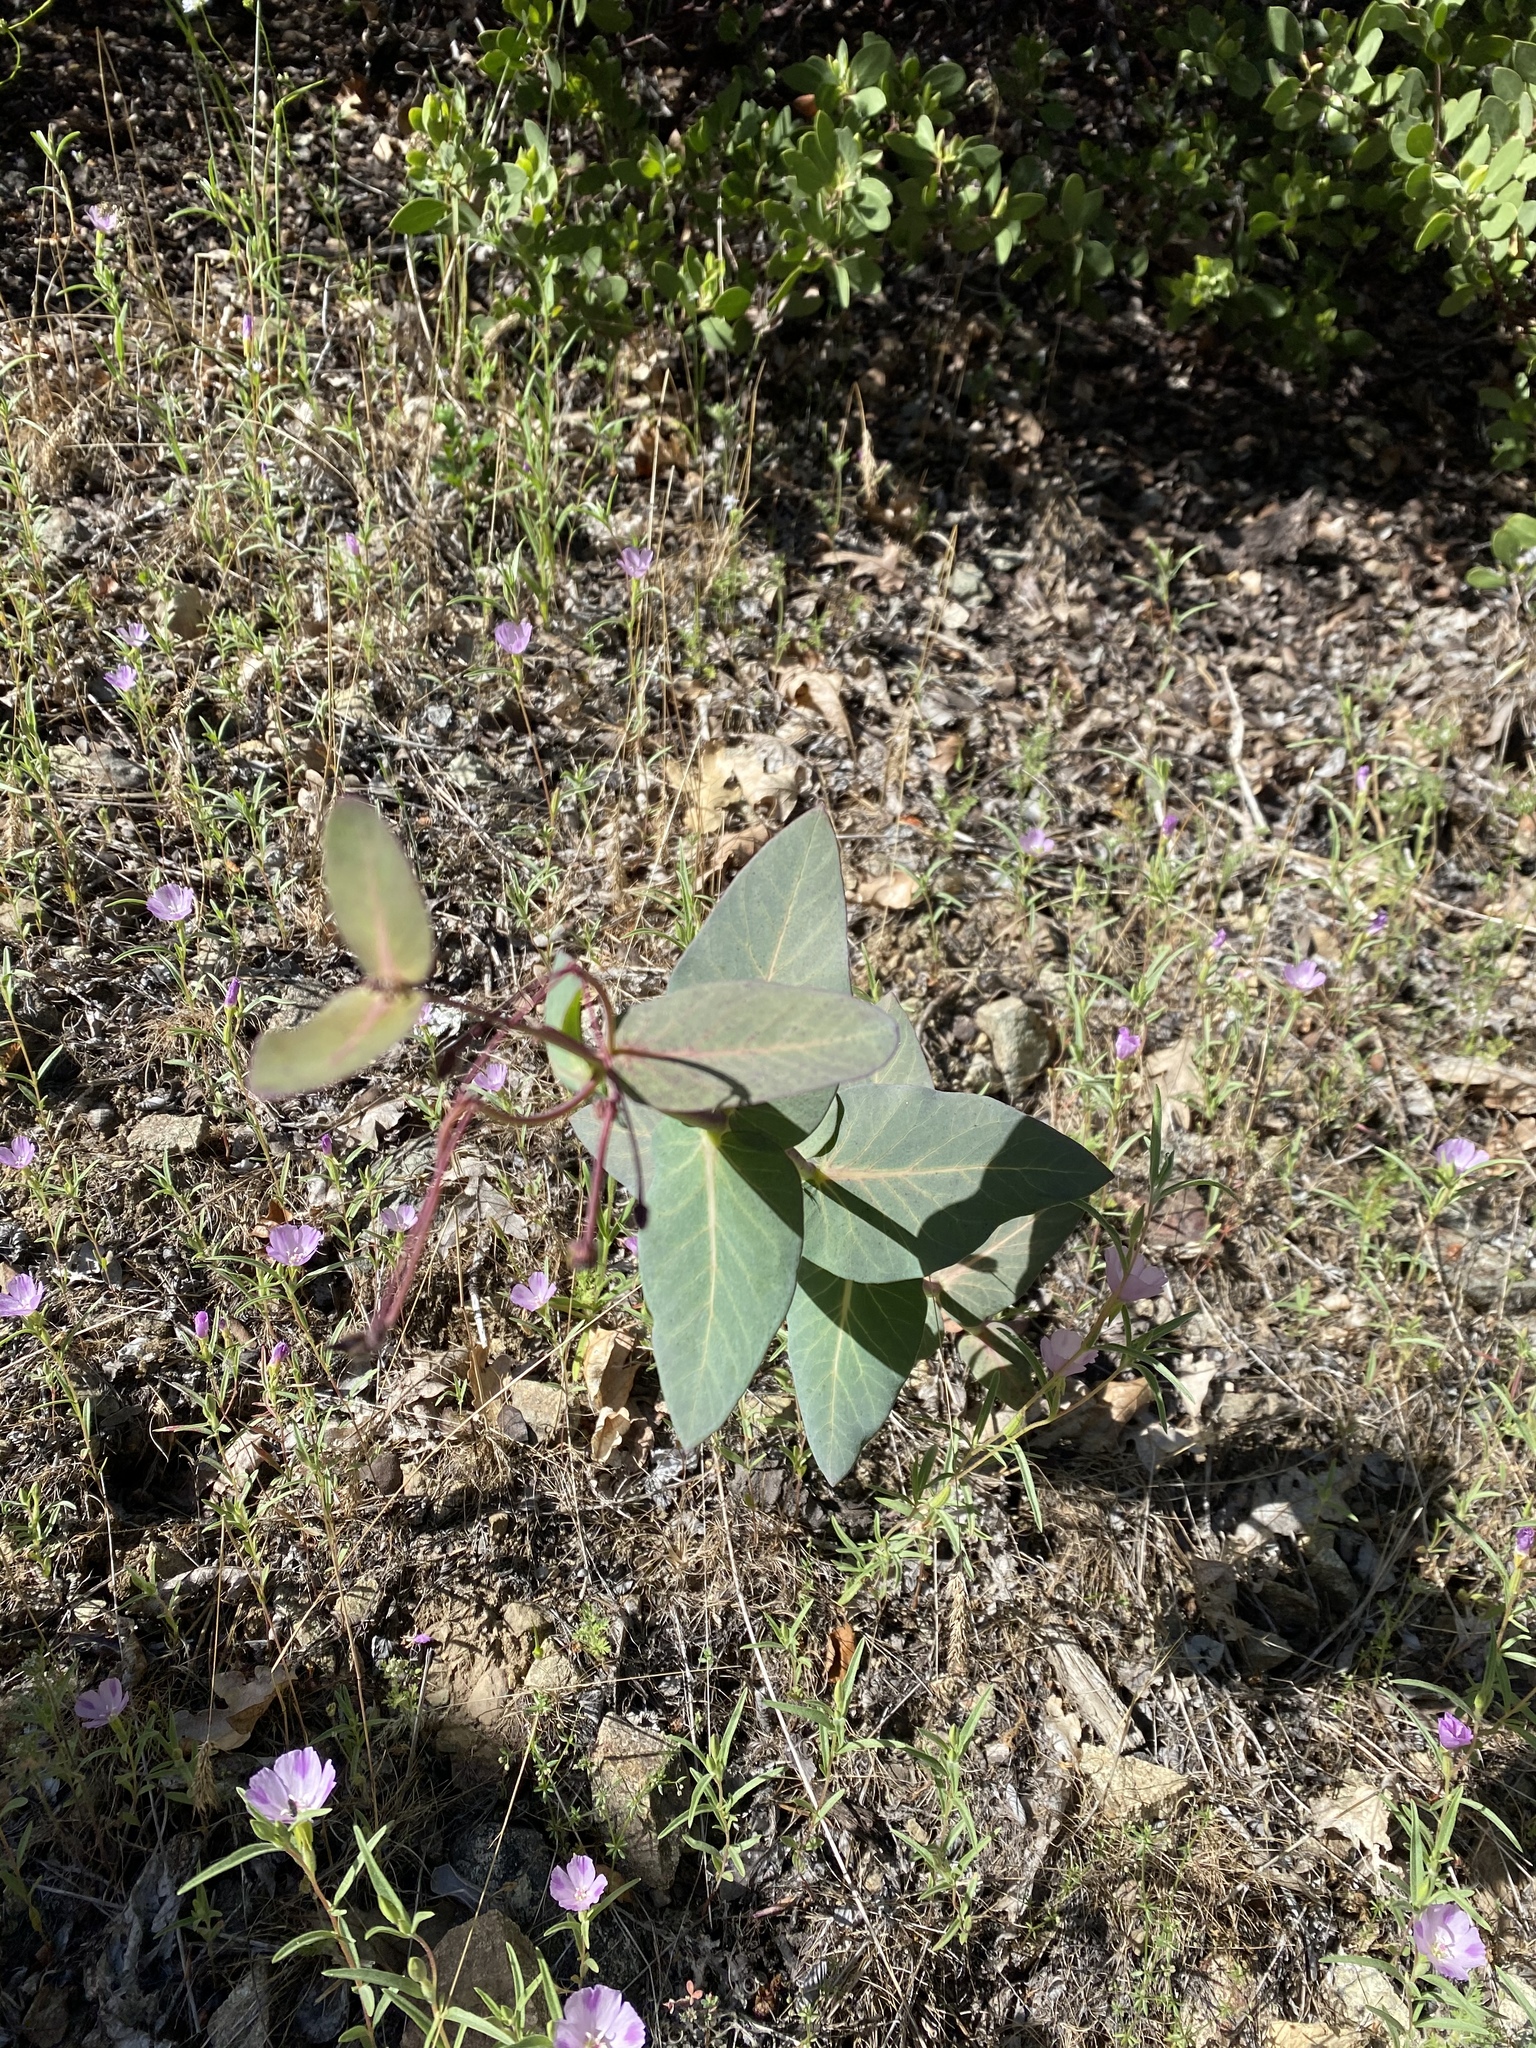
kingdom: Plantae
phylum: Tracheophyta
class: Magnoliopsida
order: Gentianales
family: Apocynaceae
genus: Asclepias
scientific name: Asclepias cordifolia
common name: Purple milkweed
